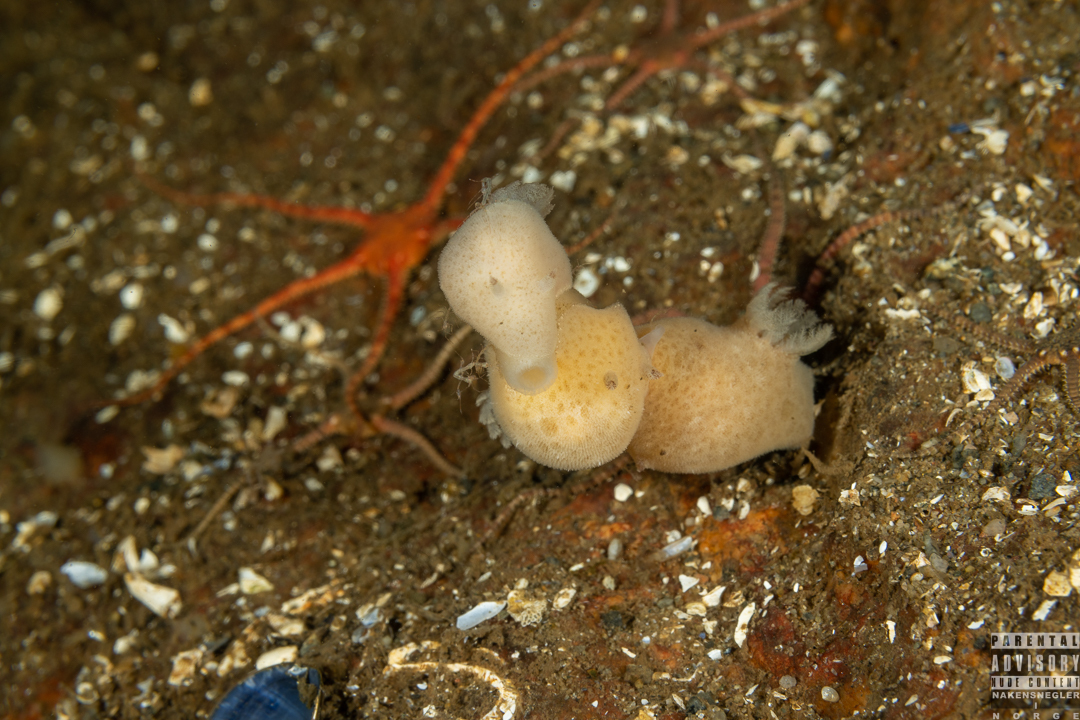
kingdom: Animalia
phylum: Mollusca
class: Gastropoda
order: Nudibranchia
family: Discodorididae
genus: Jorunna
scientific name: Jorunna tomentosa
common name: Grey sea slug
